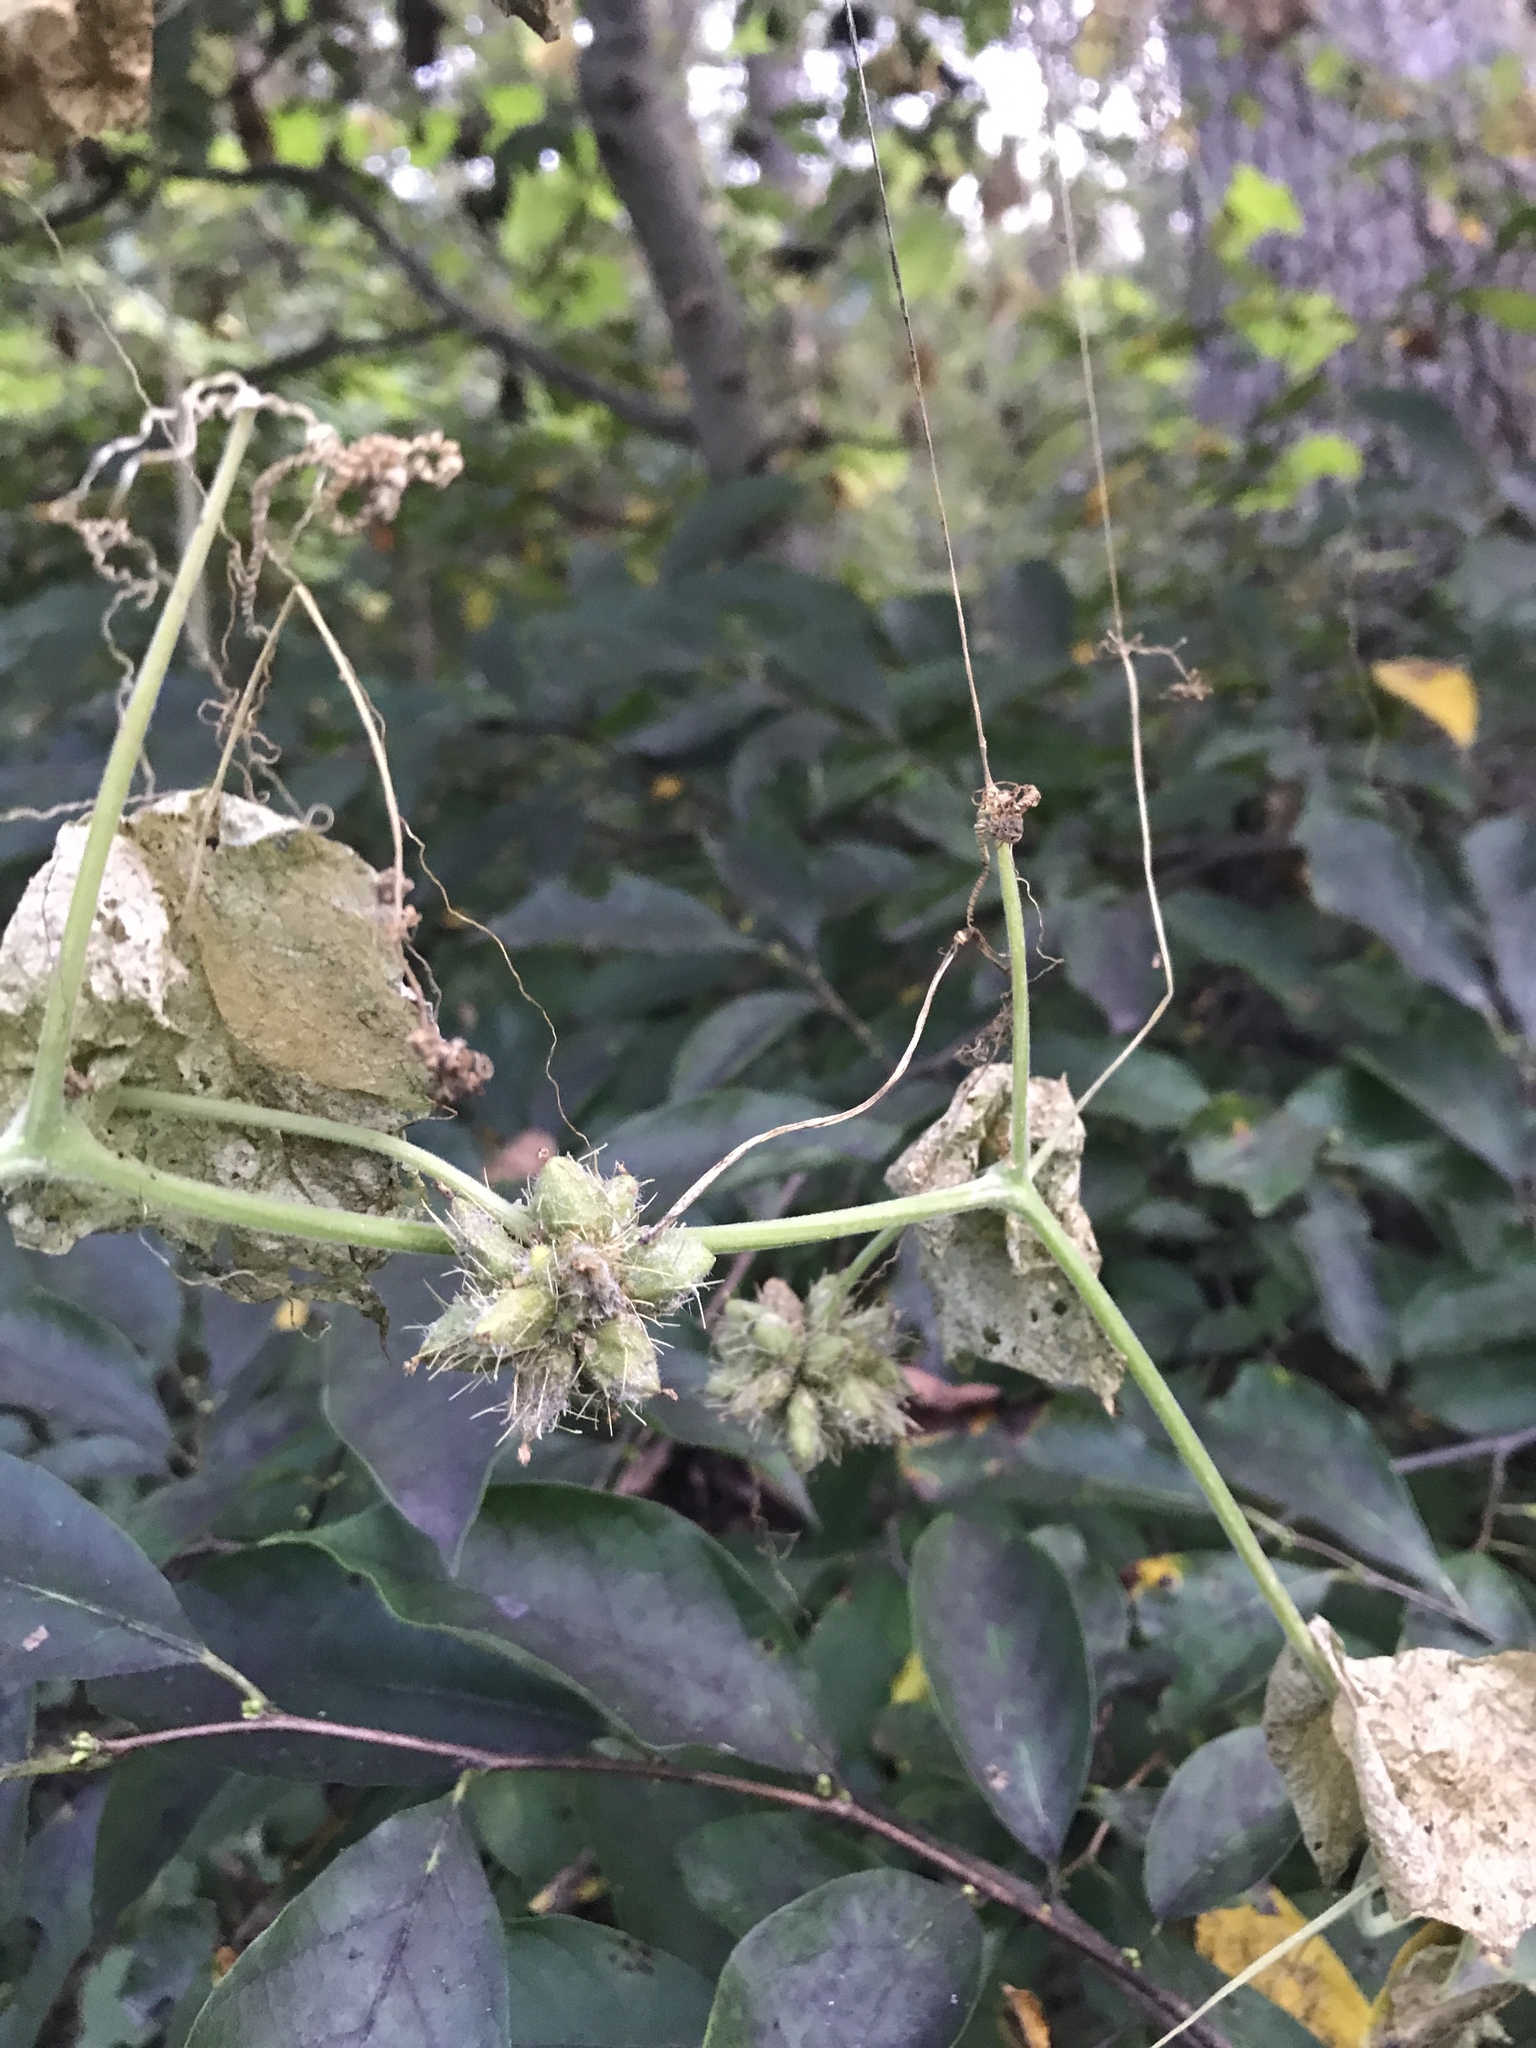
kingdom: Plantae
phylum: Tracheophyta
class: Magnoliopsida
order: Cucurbitales
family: Cucurbitaceae
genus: Sicyos
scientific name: Sicyos angulatus
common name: Angled burr cucumber
